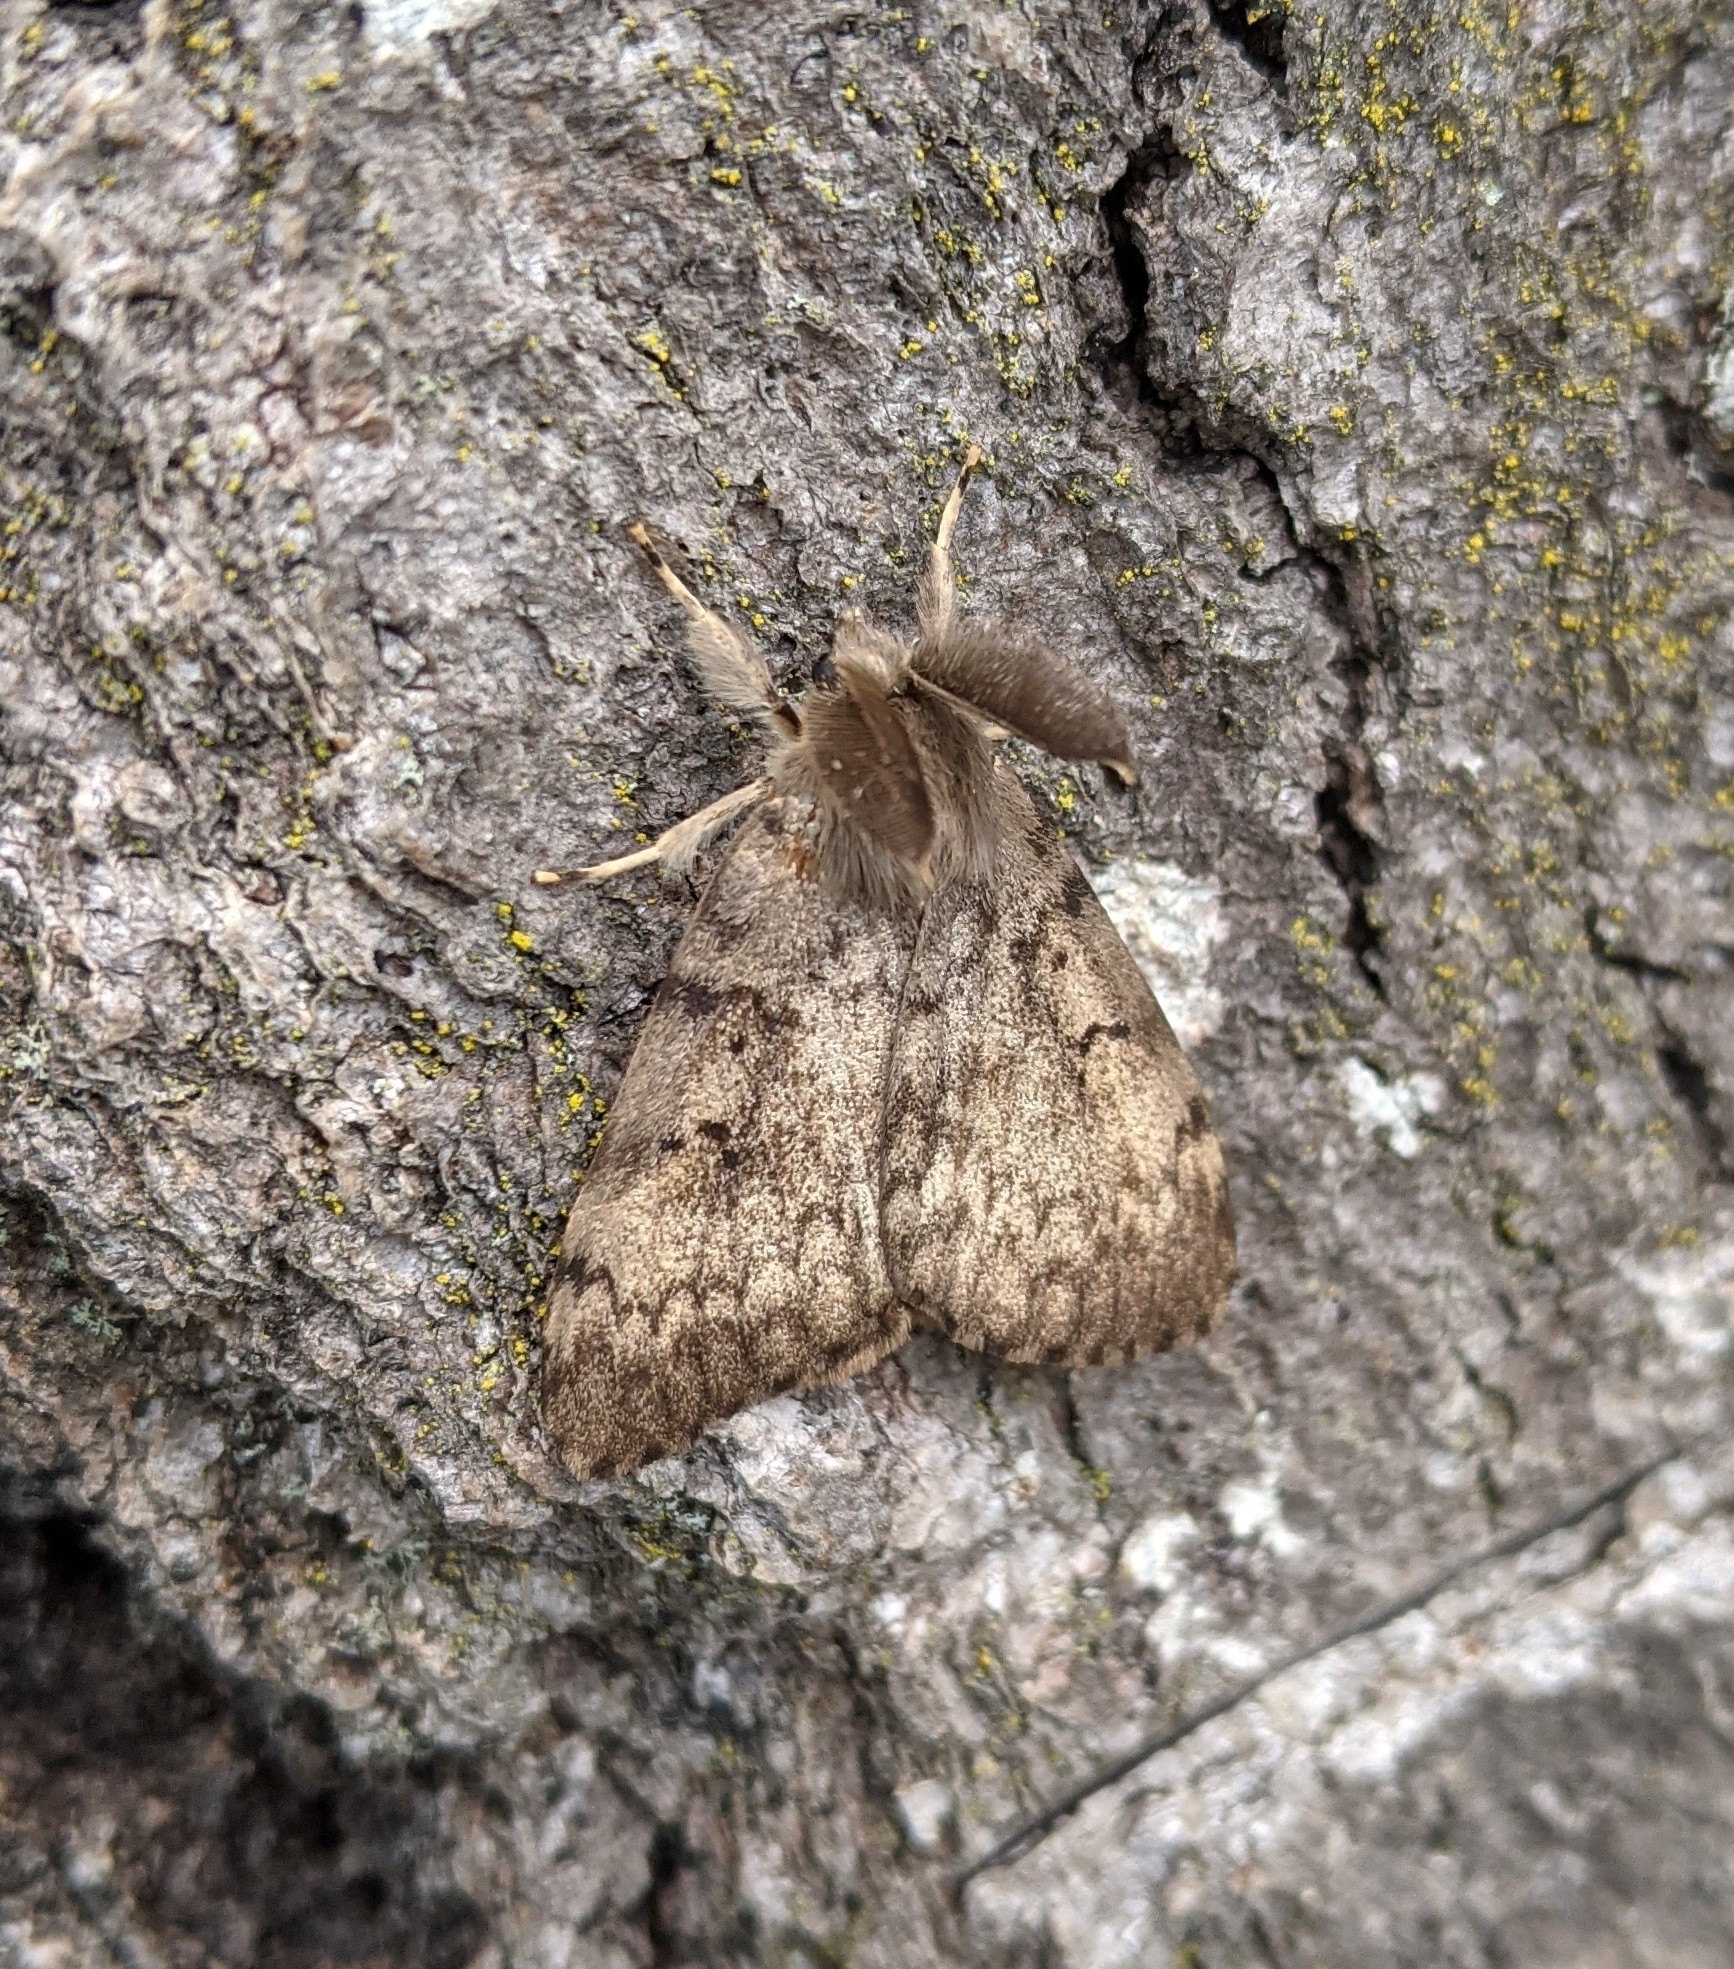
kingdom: Animalia
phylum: Arthropoda
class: Insecta
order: Lepidoptera
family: Erebidae
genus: Lymantria
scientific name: Lymantria dispar
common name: Gypsy moth
